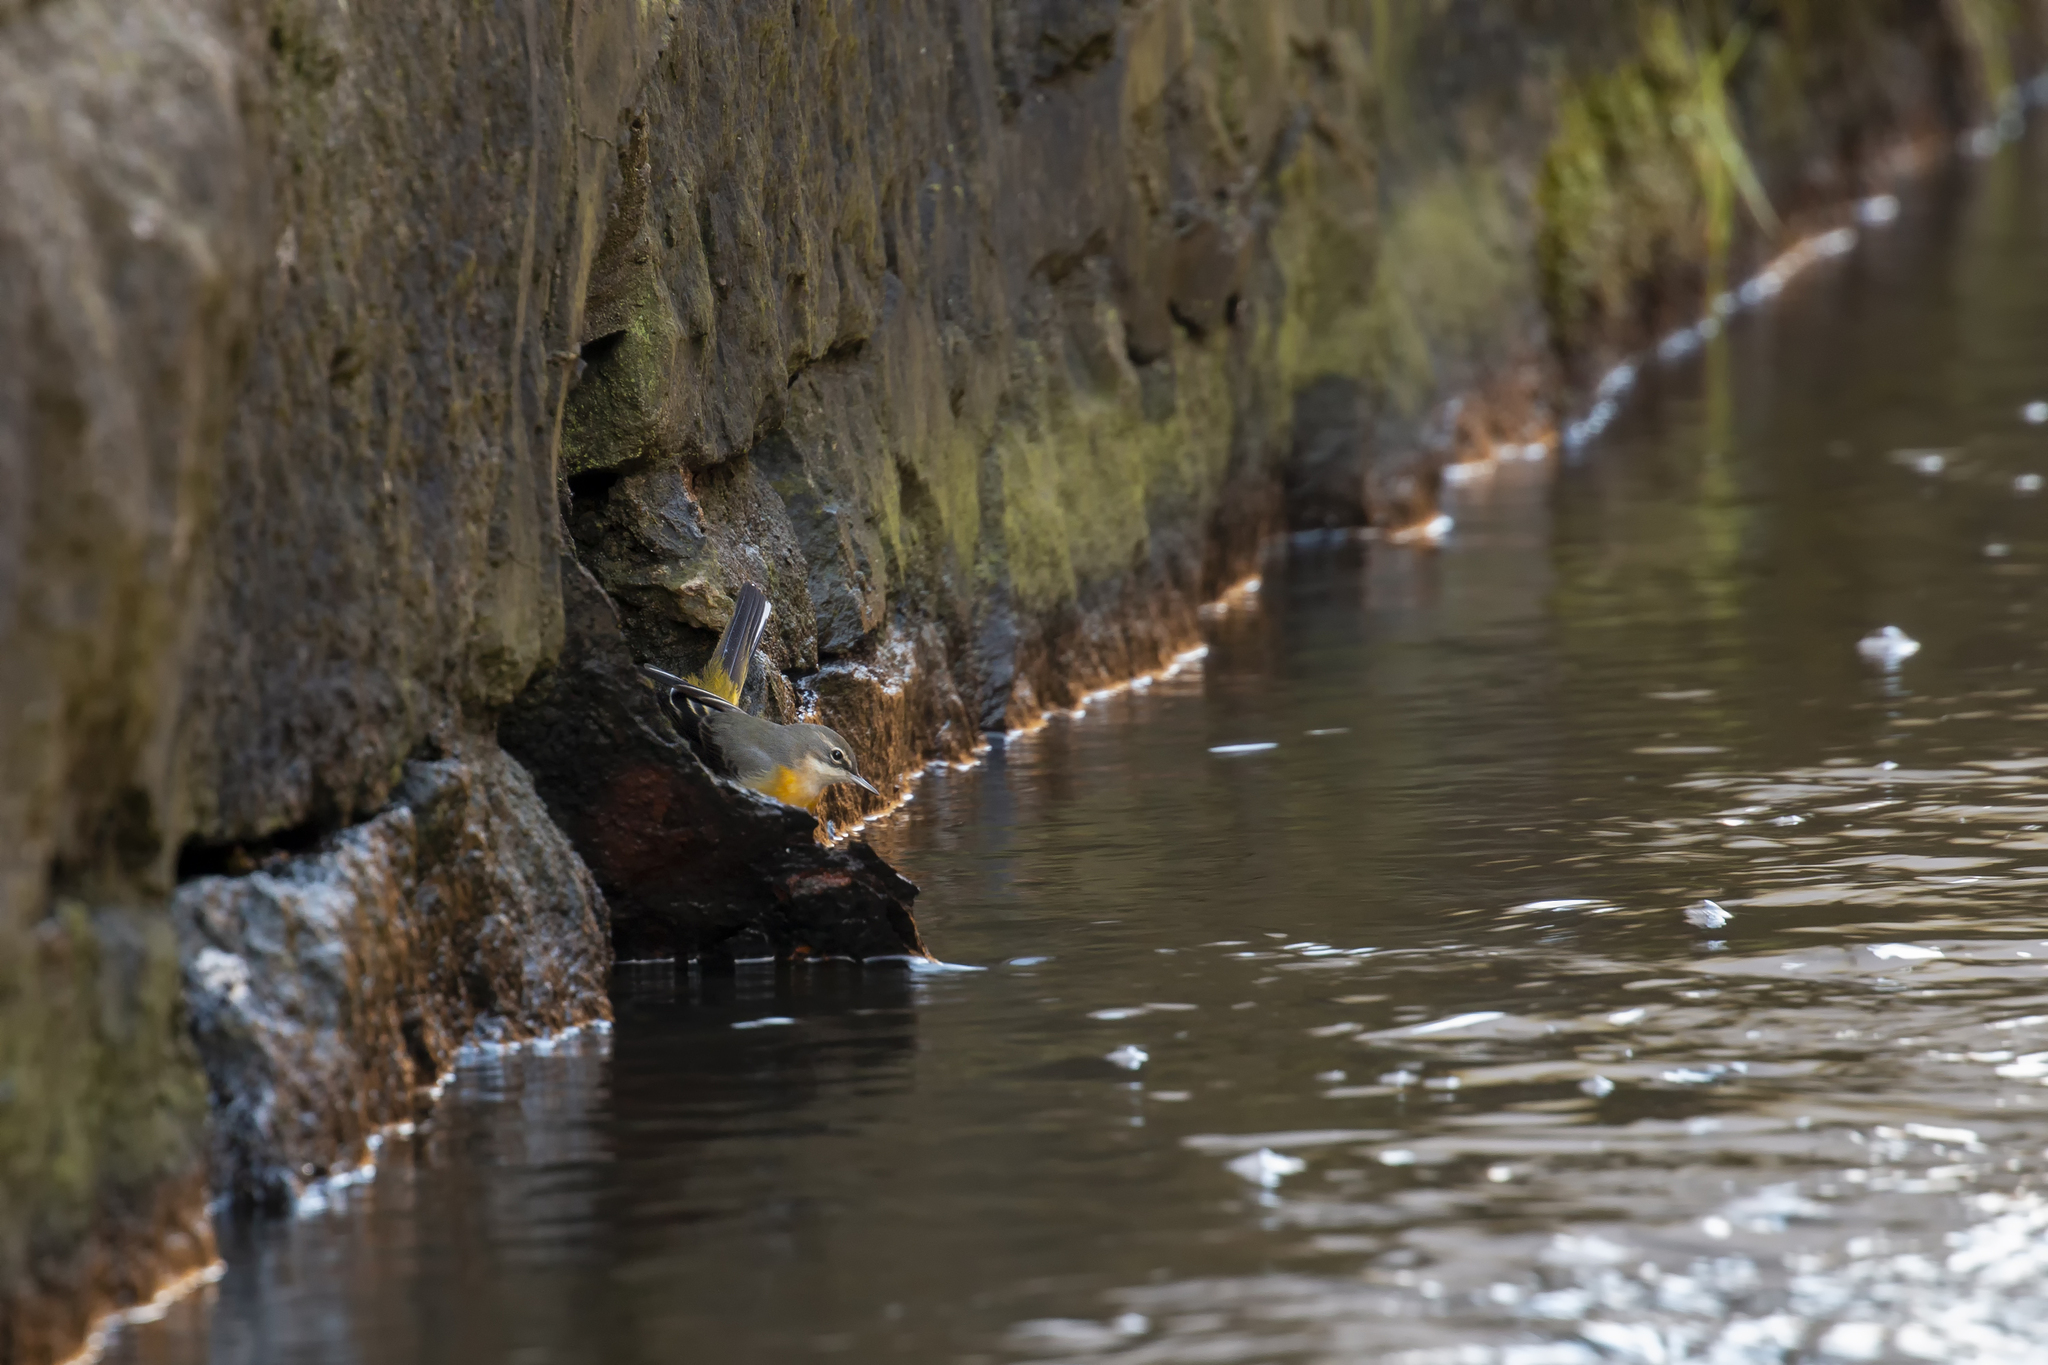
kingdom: Animalia
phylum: Chordata
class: Aves
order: Passeriformes
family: Motacillidae
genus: Motacilla
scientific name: Motacilla cinerea
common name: Grey wagtail
